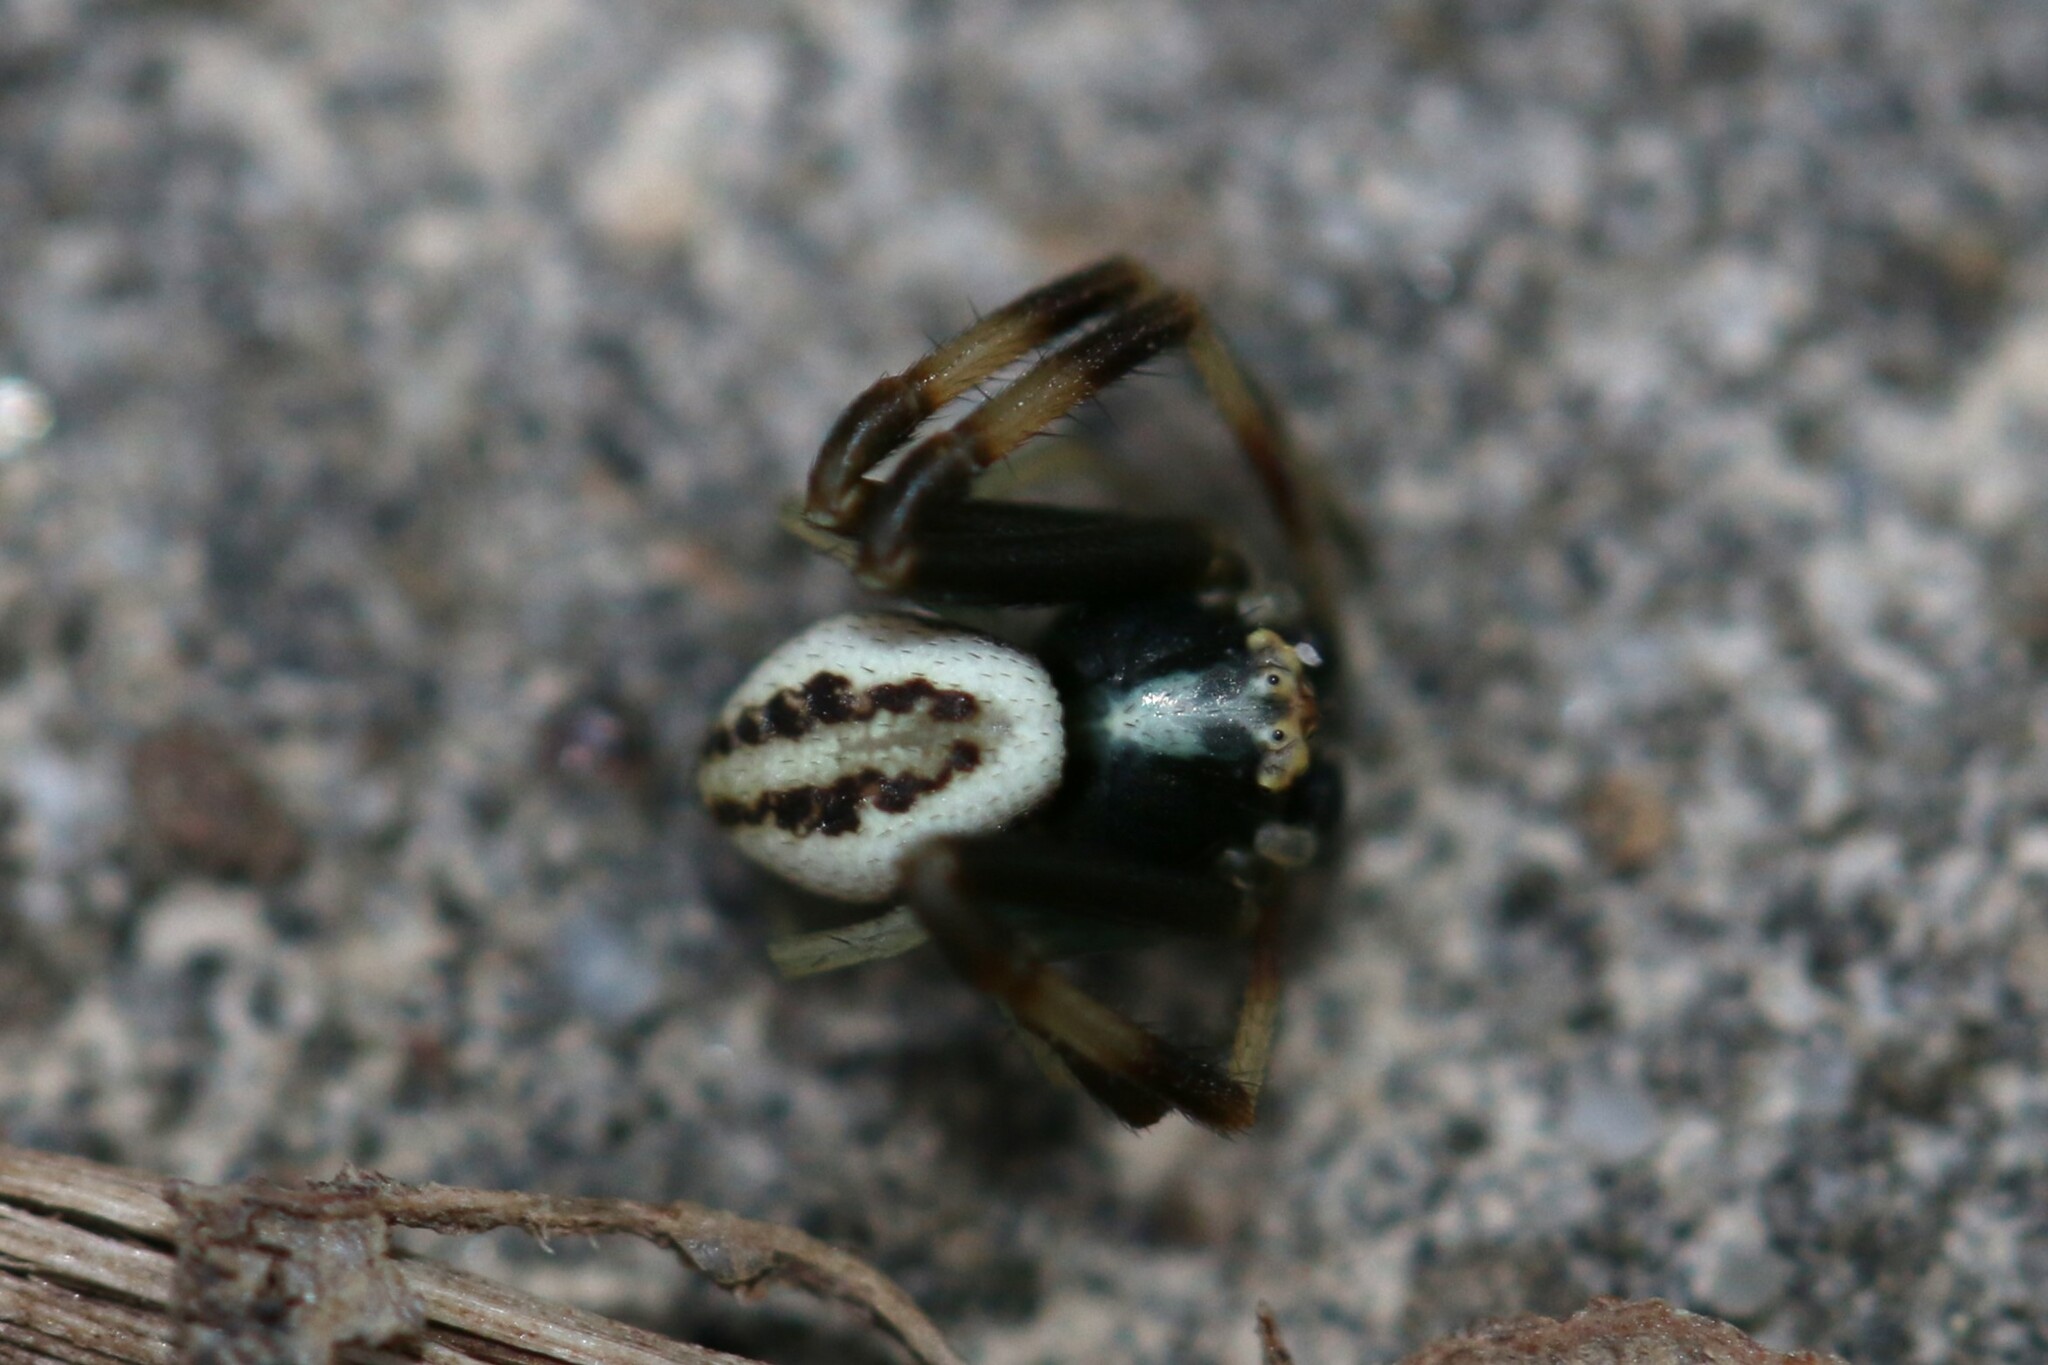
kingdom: Animalia
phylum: Arthropoda
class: Arachnida
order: Araneae
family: Thomisidae
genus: Misumena
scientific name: Misumena vatia
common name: Goldenrod crab spider
